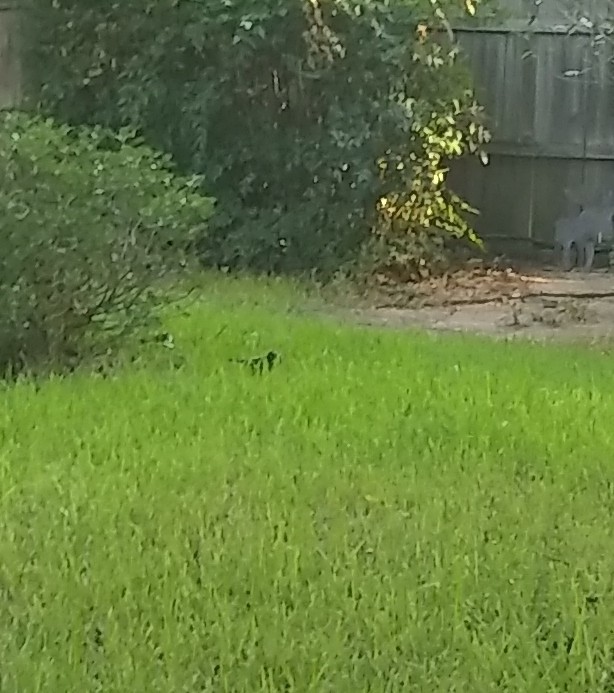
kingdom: Animalia
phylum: Chordata
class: Aves
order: Passeriformes
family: Turdidae
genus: Turdus
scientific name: Turdus migratorius
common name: American robin
